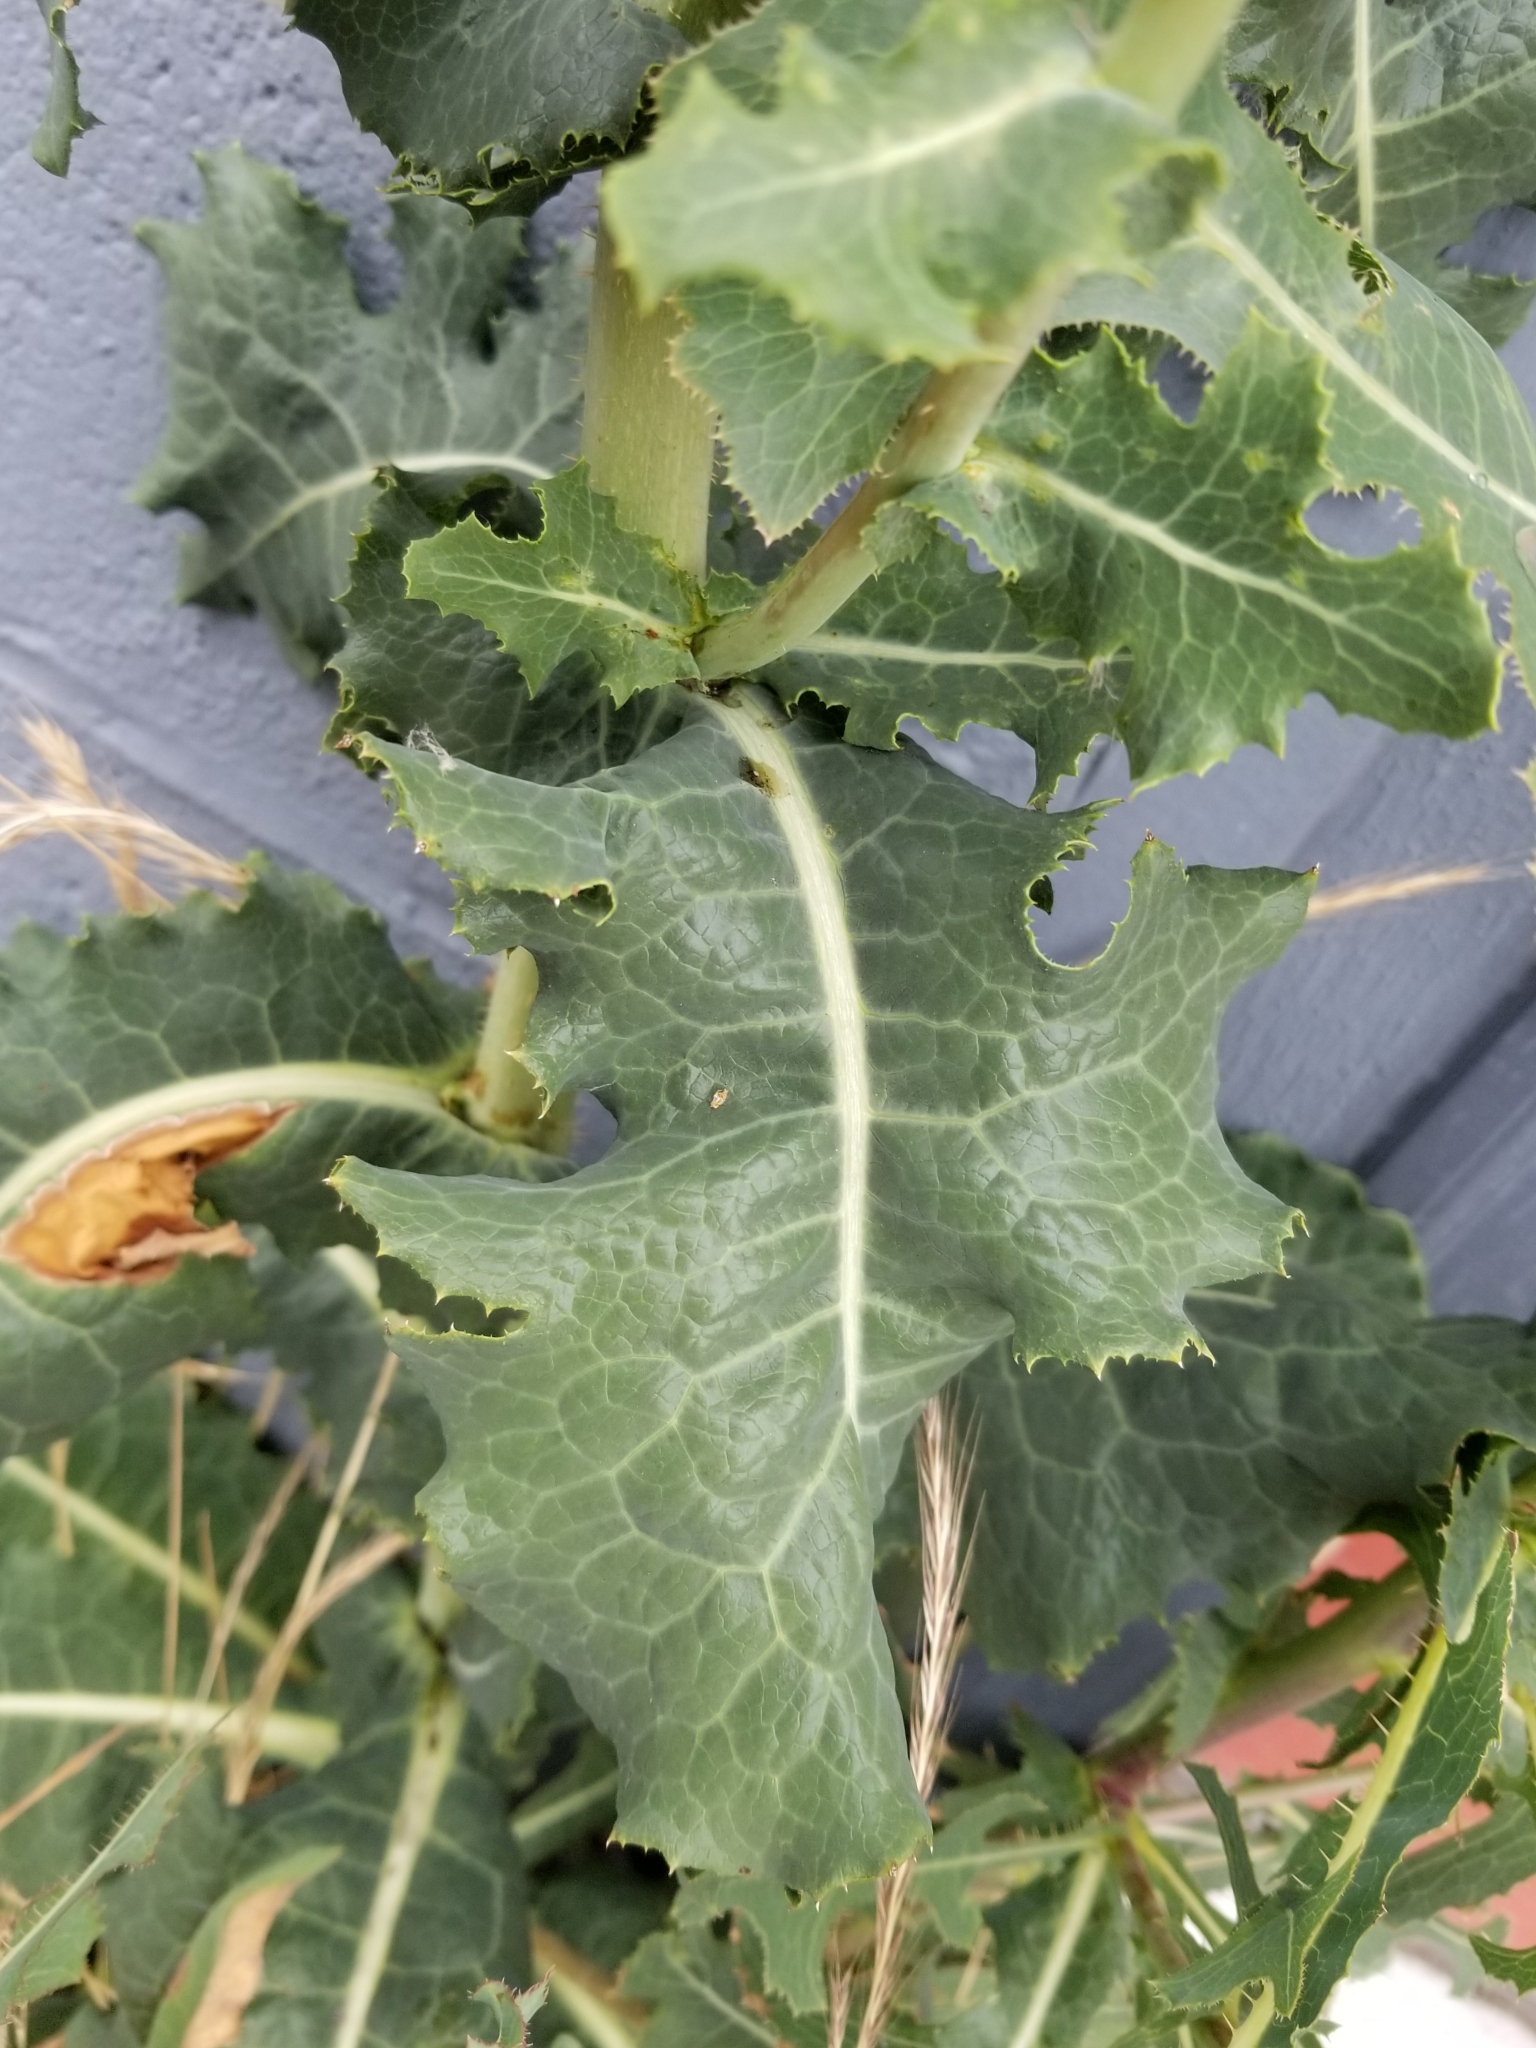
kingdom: Plantae
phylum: Tracheophyta
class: Magnoliopsida
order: Asterales
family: Asteraceae
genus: Lactuca
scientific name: Lactuca serriola
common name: Prickly lettuce
